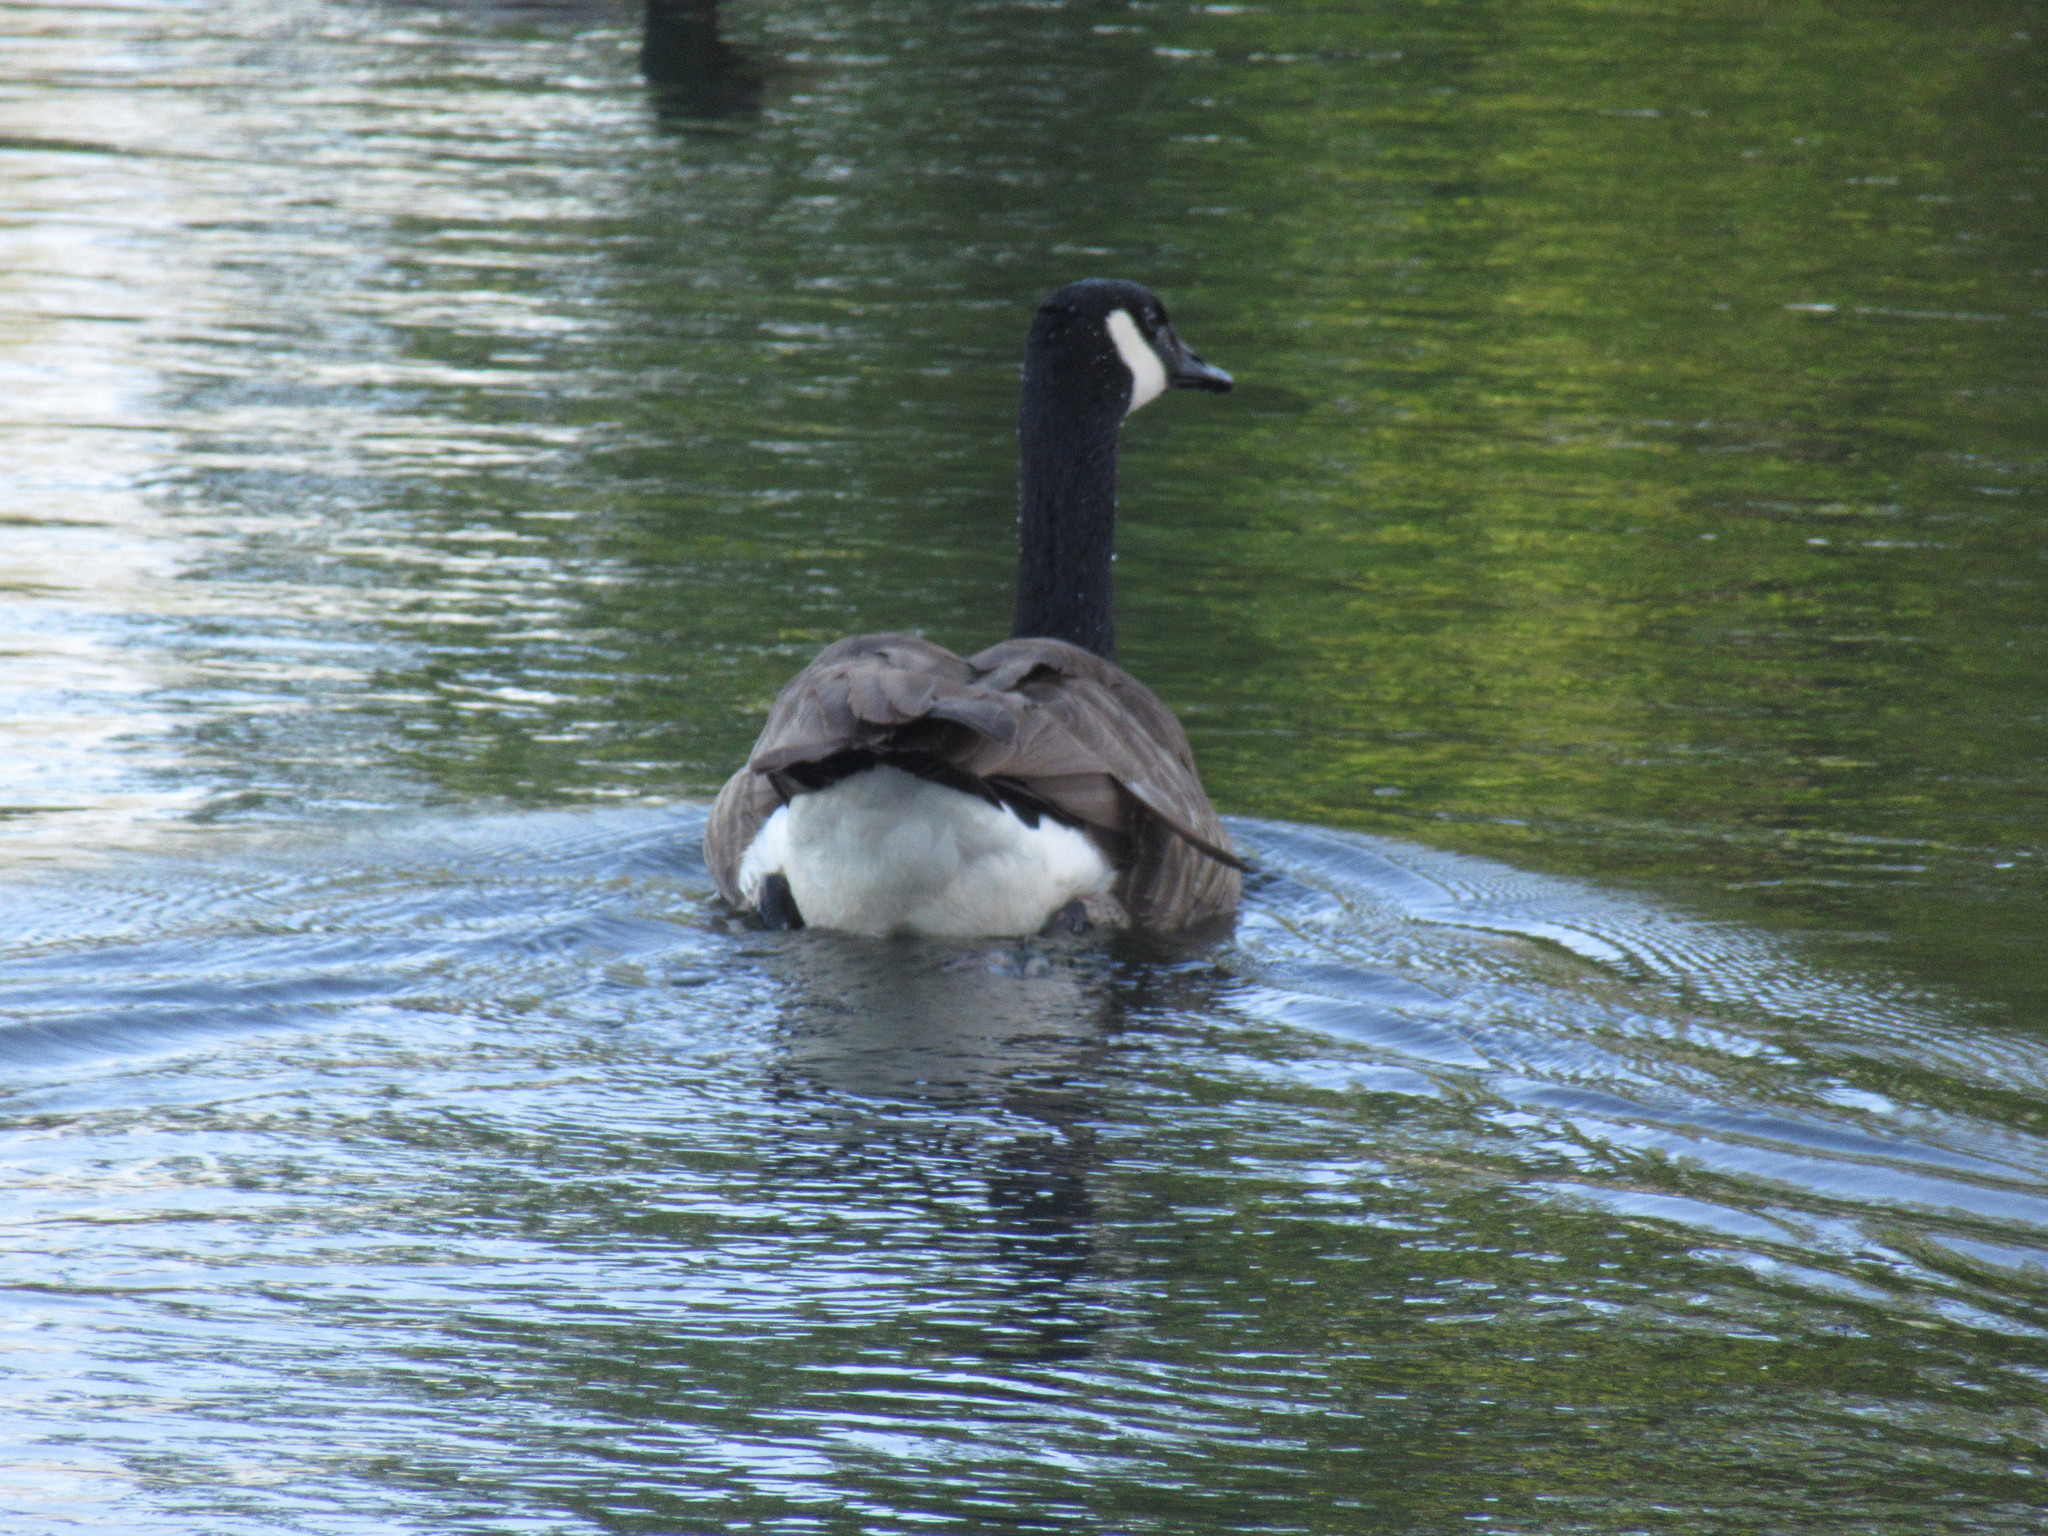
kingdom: Animalia
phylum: Chordata
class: Aves
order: Anseriformes
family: Anatidae
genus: Branta
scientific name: Branta canadensis
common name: Canada goose
